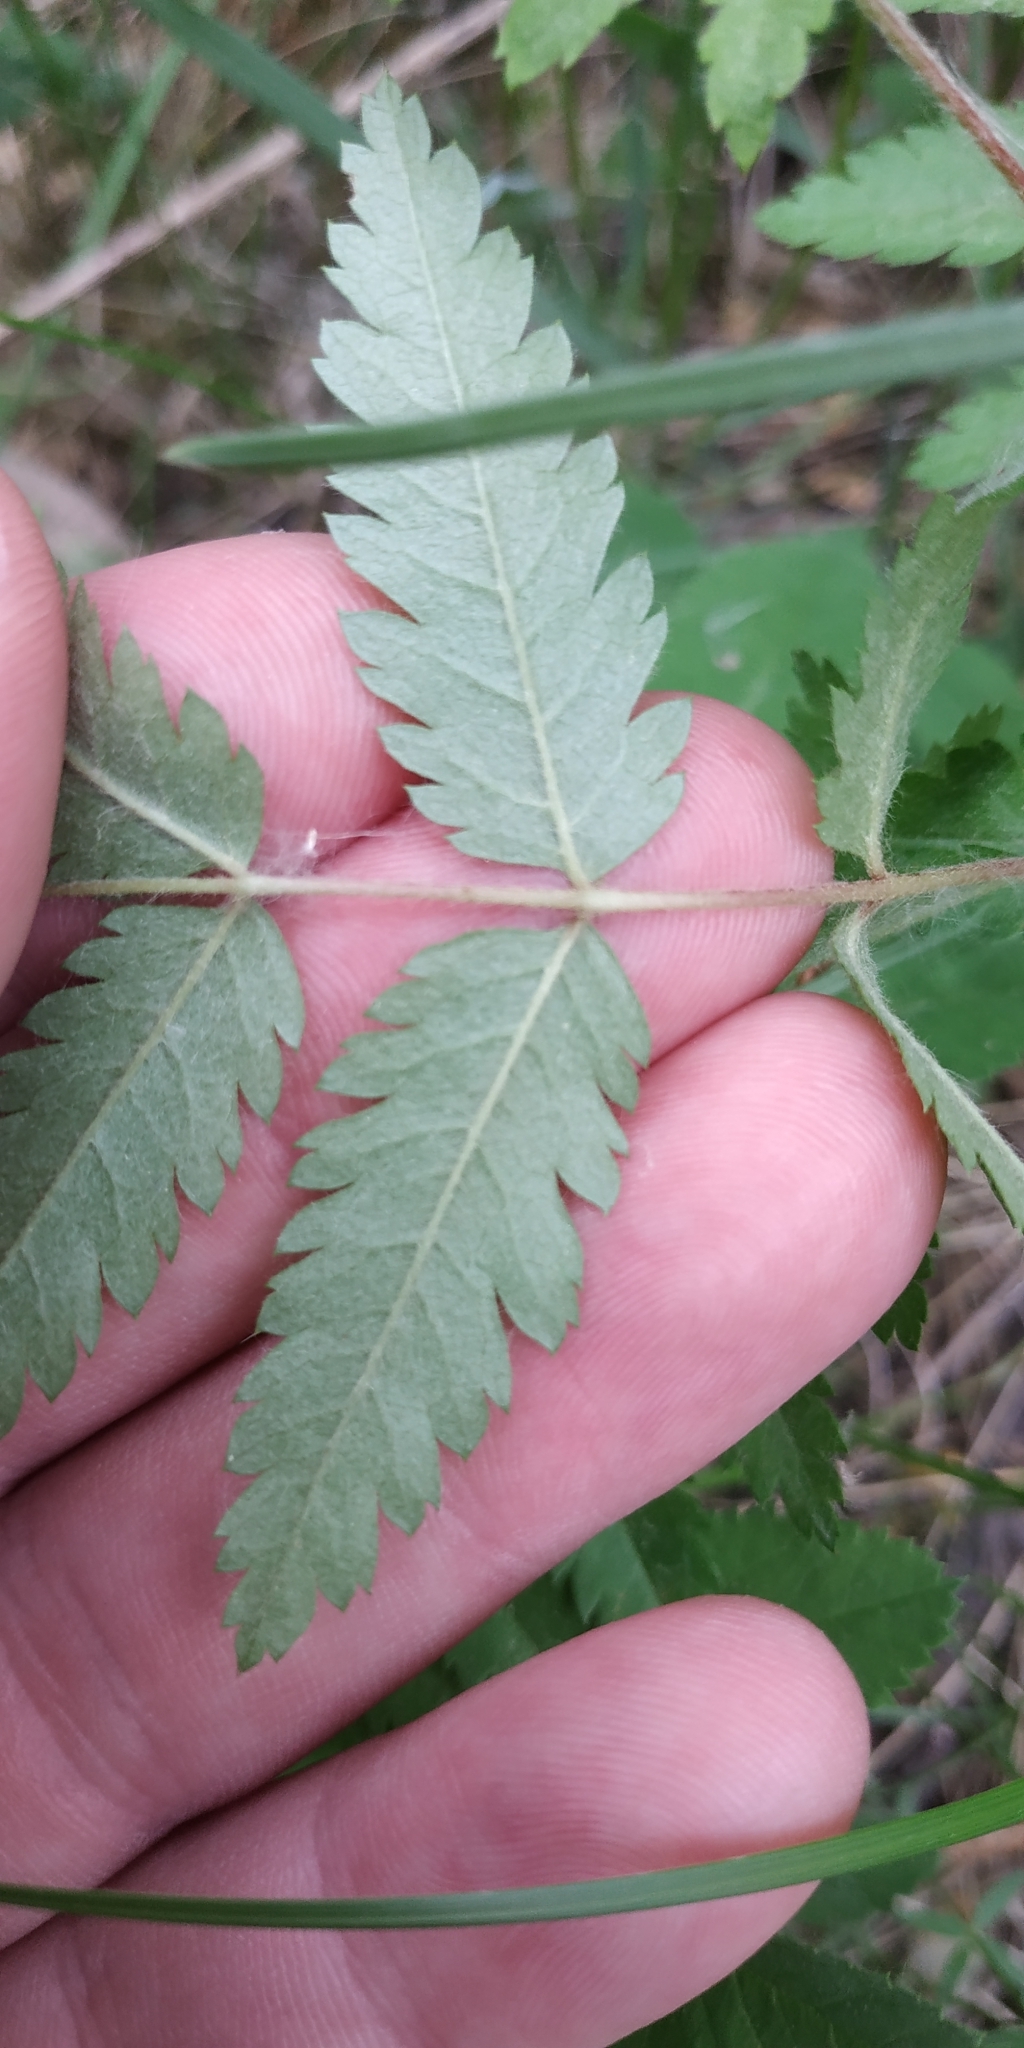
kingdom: Plantae
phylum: Tracheophyta
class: Magnoliopsida
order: Rosales
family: Rosaceae
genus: Sorbus
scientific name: Sorbus aucuparia
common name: Rowan
